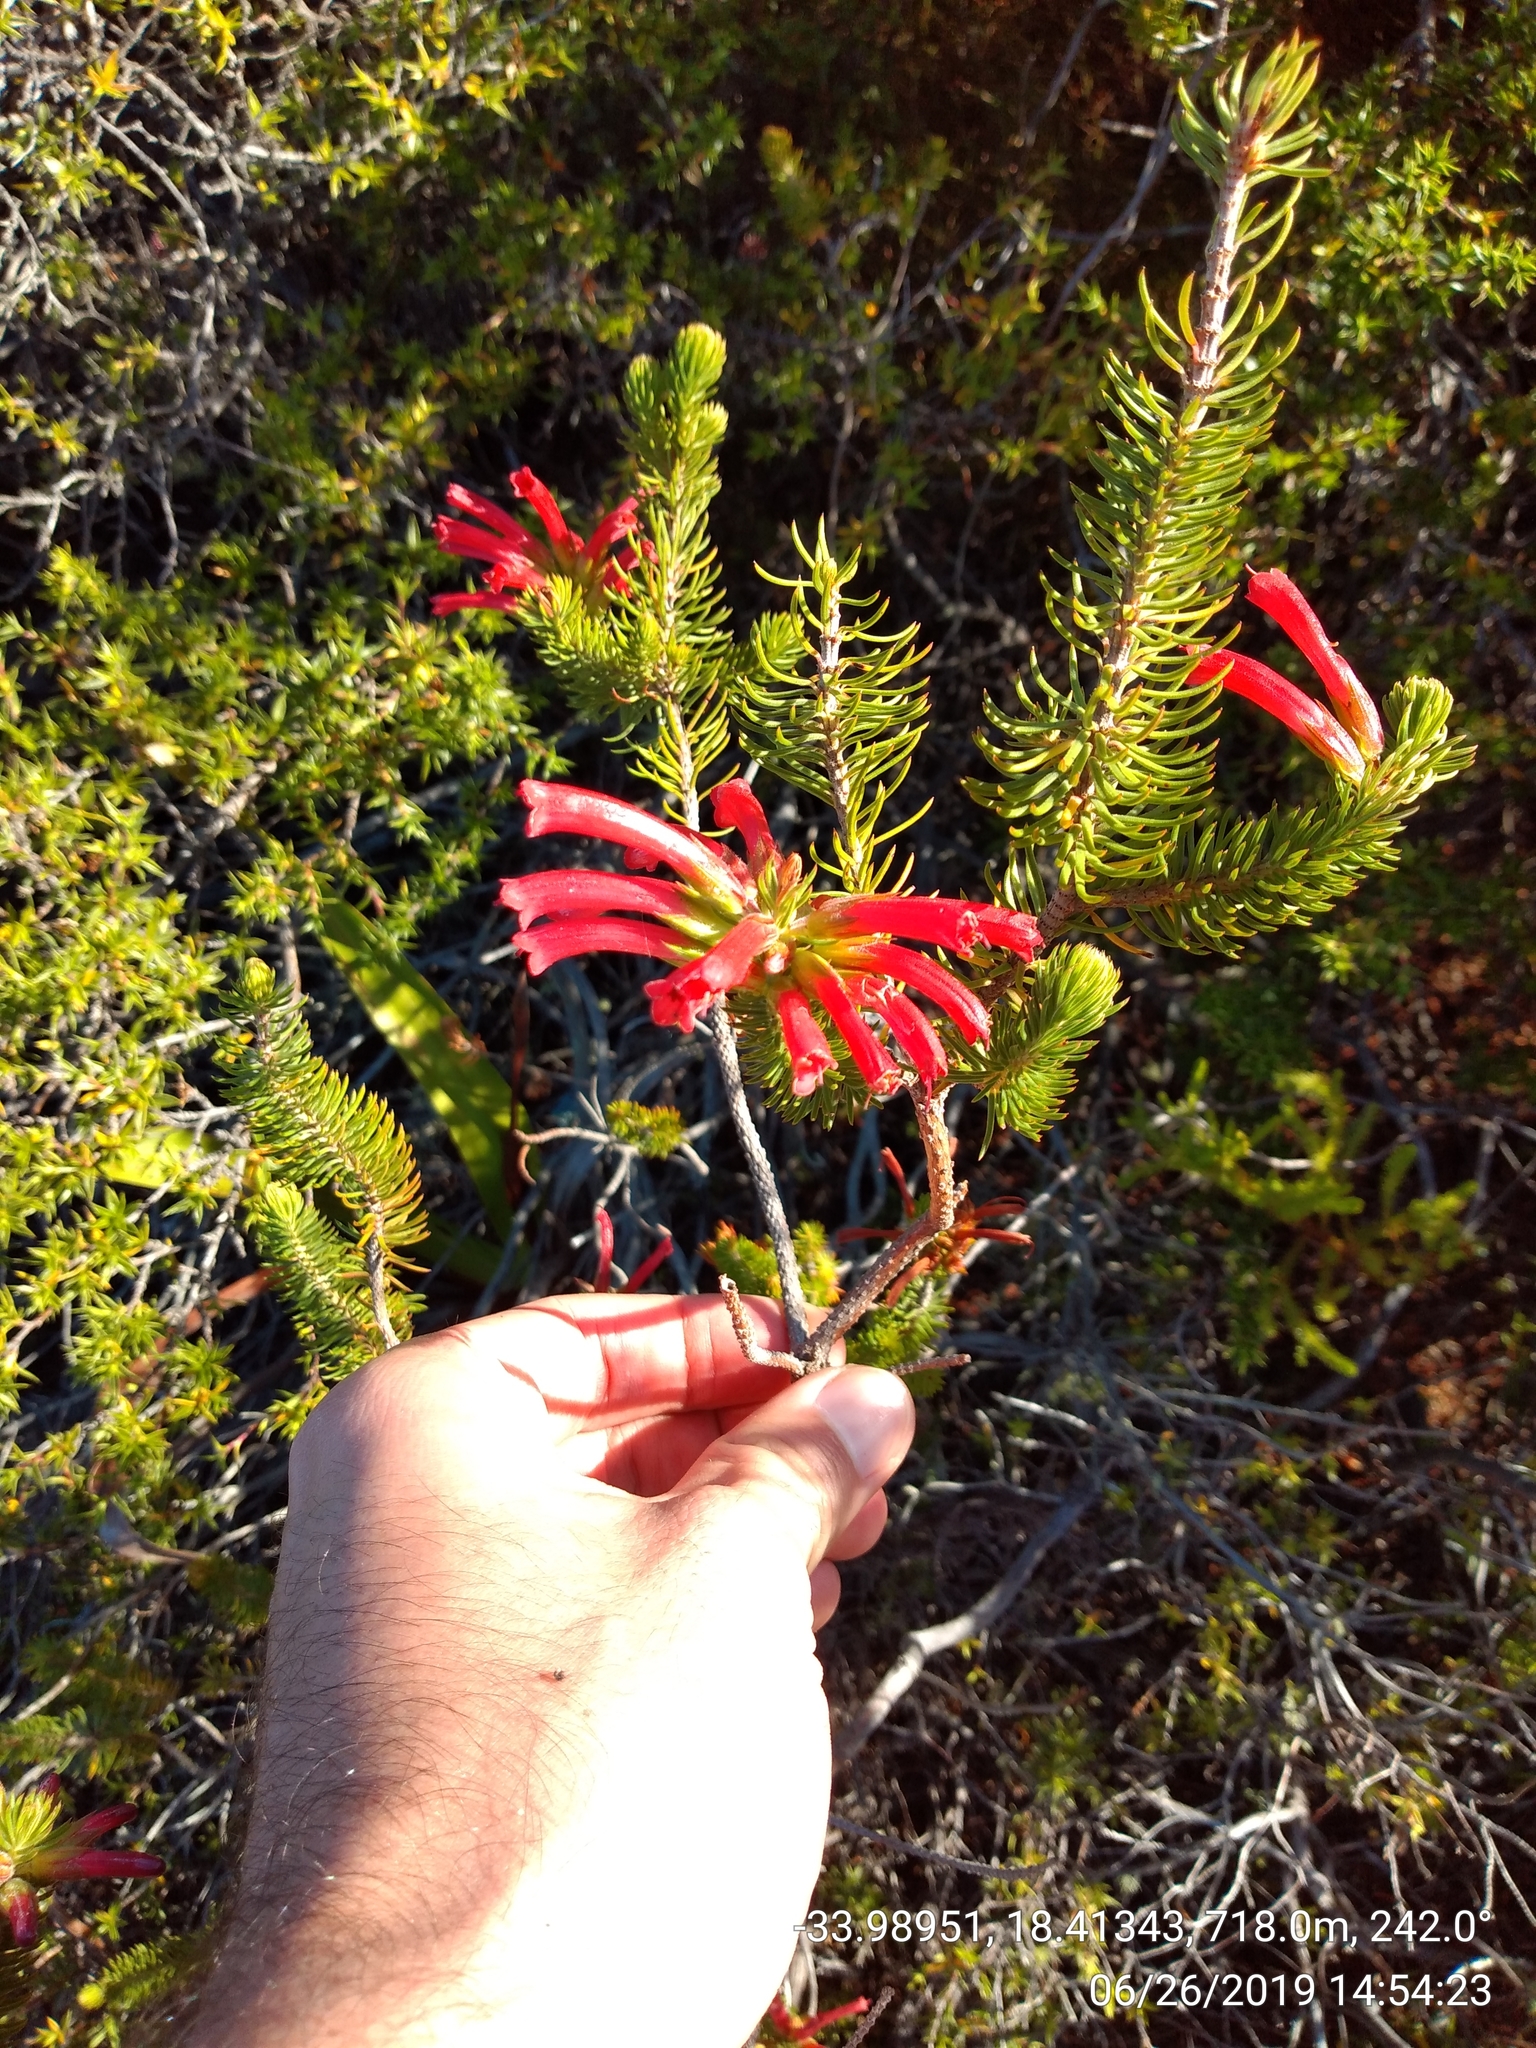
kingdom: Plantae
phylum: Tracheophyta
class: Magnoliopsida
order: Ericales
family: Ericaceae
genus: Erica
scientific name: Erica abietina
